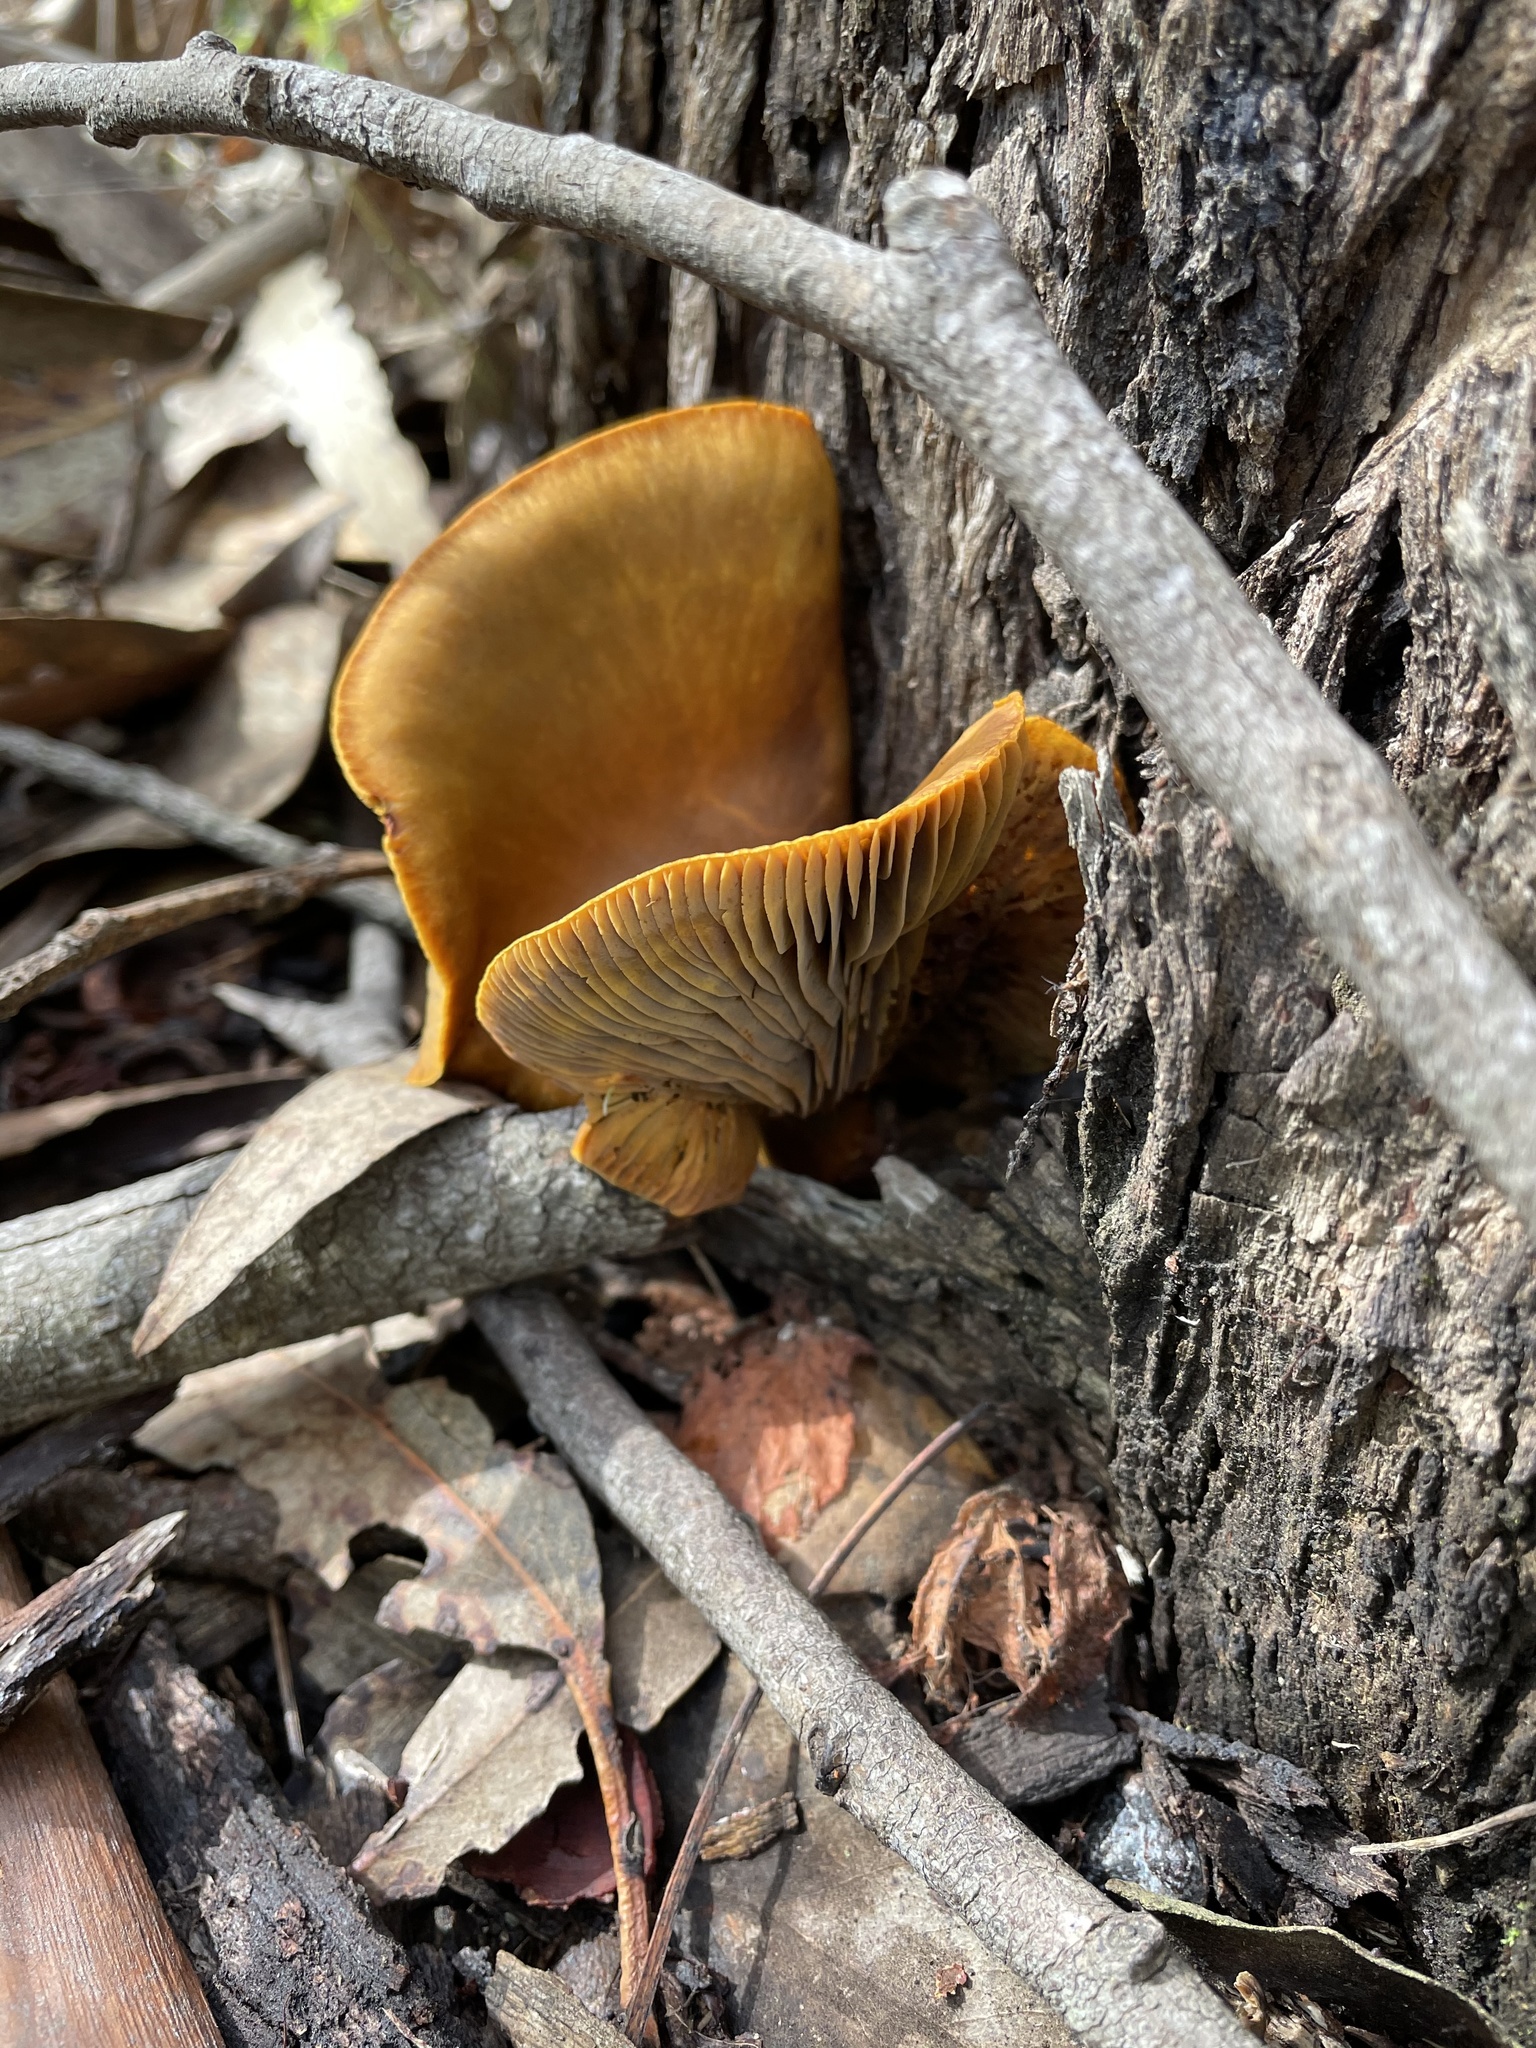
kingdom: Fungi
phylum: Basidiomycota
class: Agaricomycetes
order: Agaricales
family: Omphalotaceae
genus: Omphalotus
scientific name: Omphalotus olivascens
